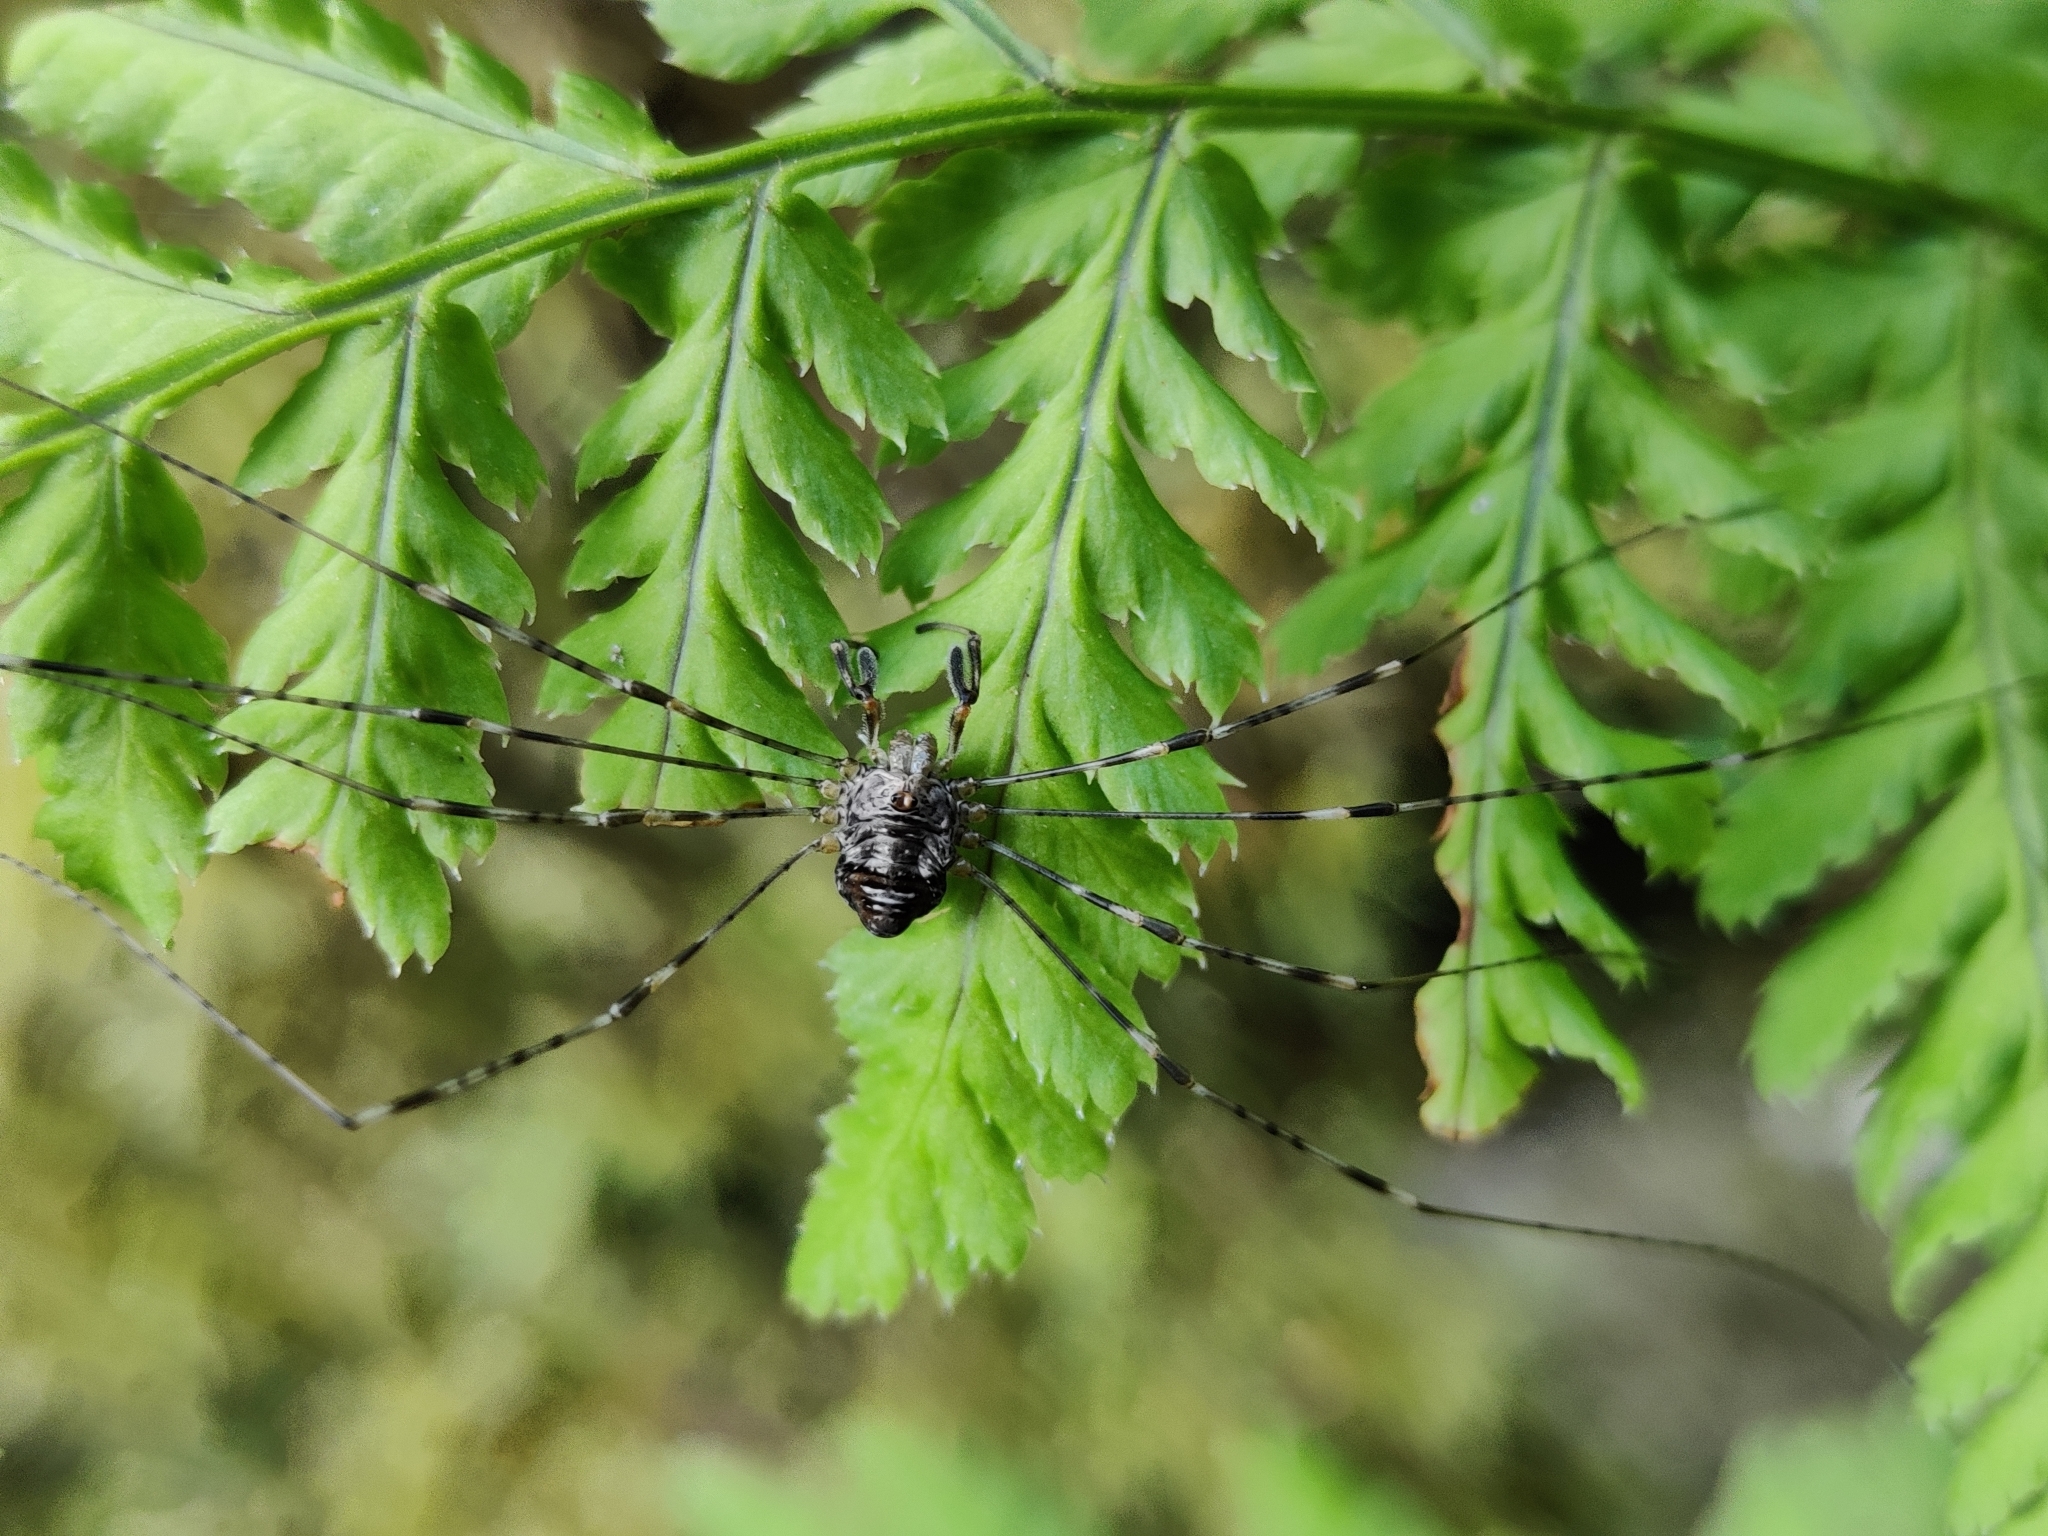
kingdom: Animalia
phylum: Arthropoda
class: Arachnida
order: Opiliones
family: Phalangiidae
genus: Dicranopalpus
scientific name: Dicranopalpus ramosus
